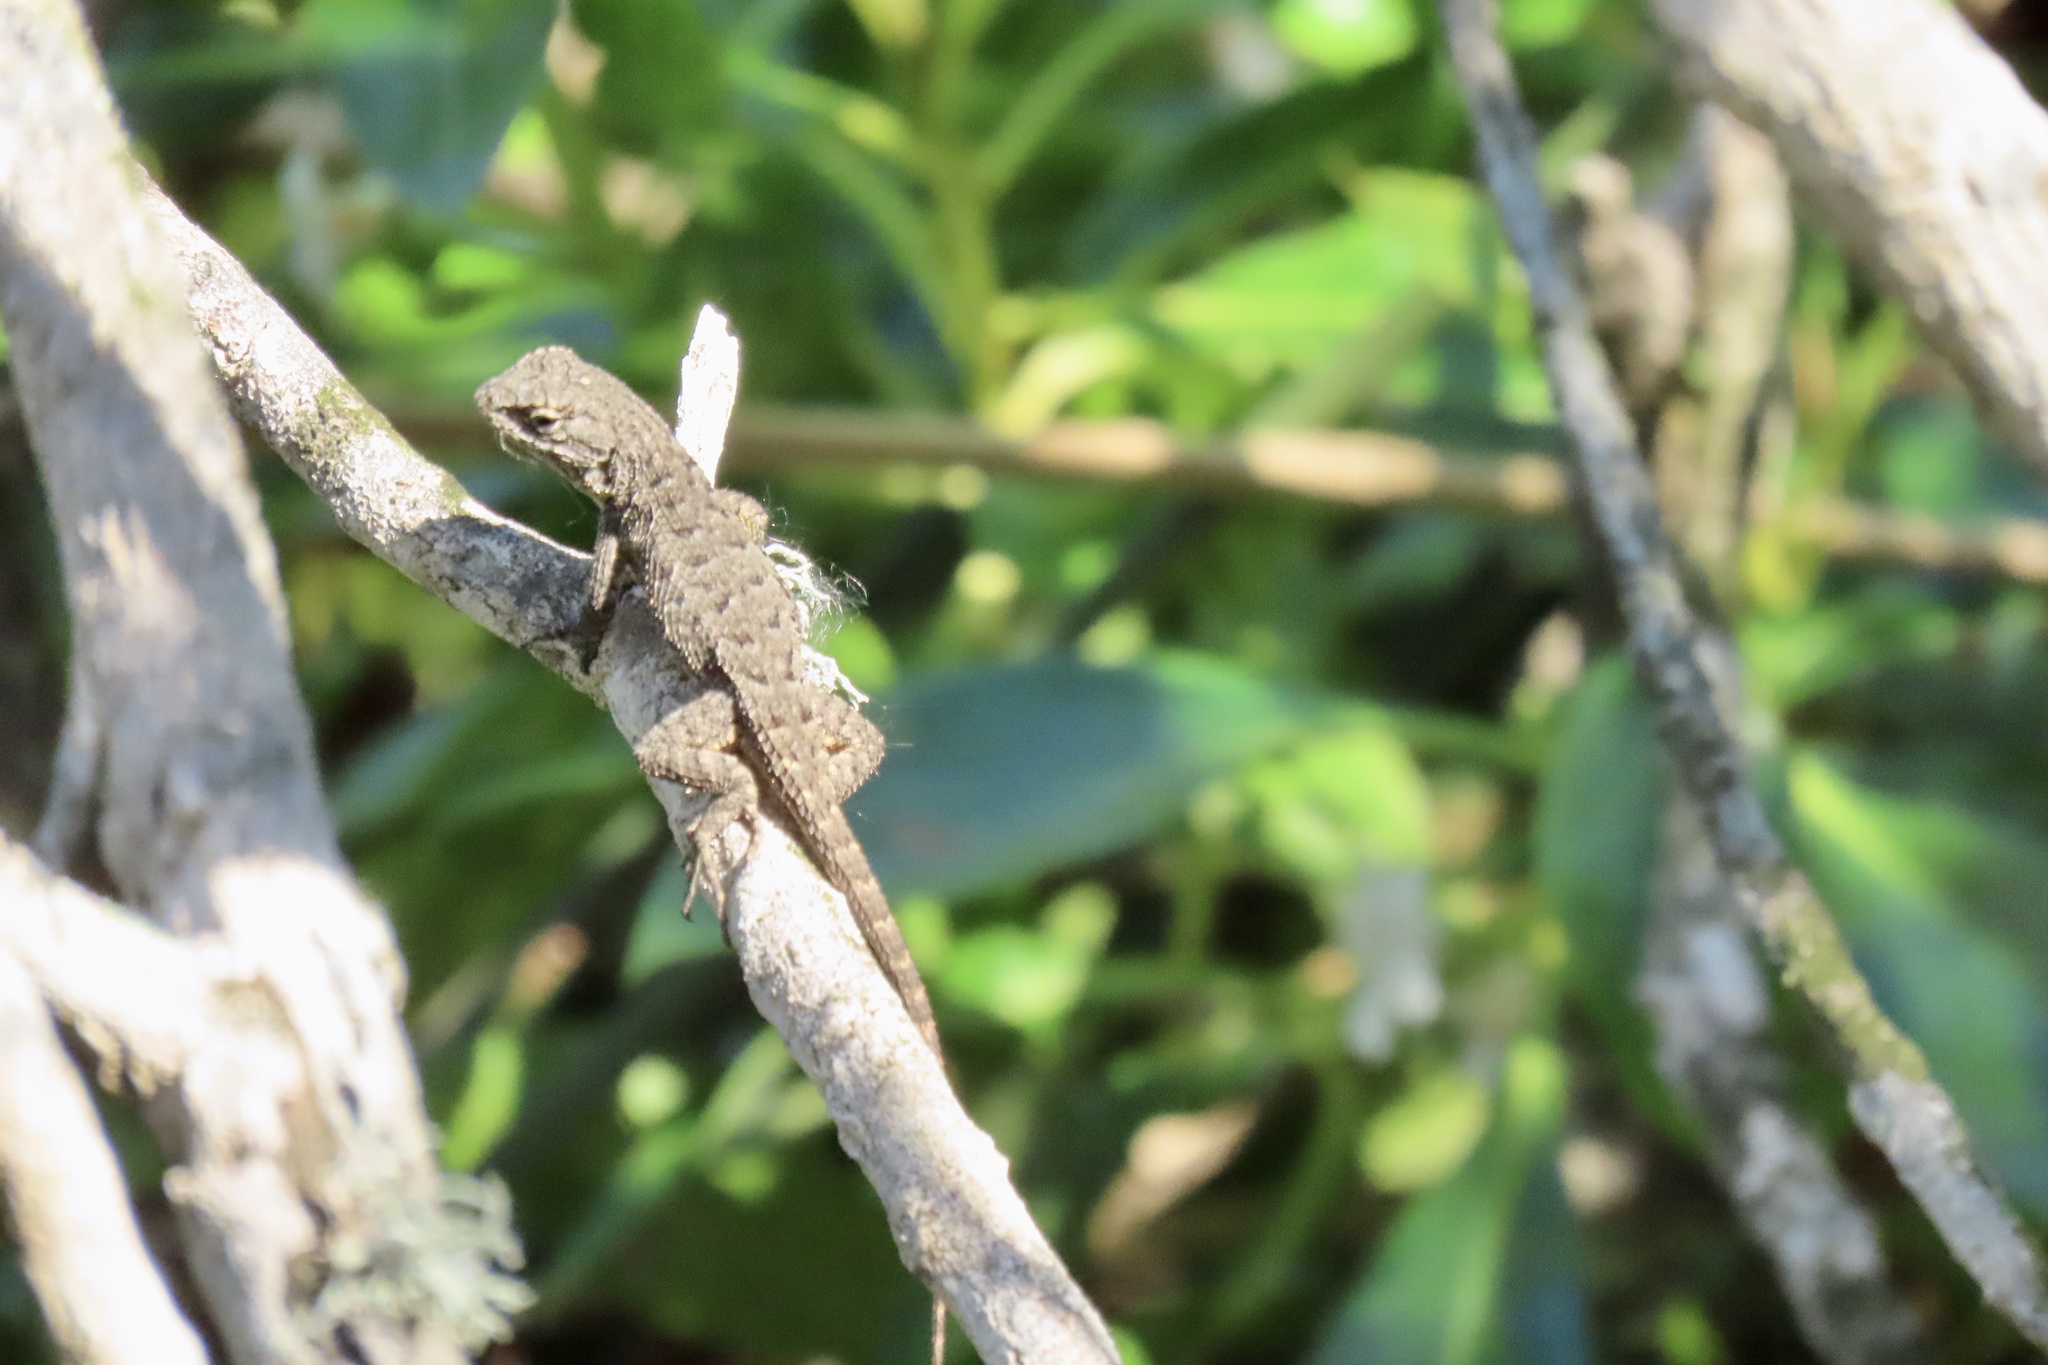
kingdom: Animalia
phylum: Chordata
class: Squamata
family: Phrynosomatidae
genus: Sceloporus
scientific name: Sceloporus occidentalis
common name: Western fence lizard
